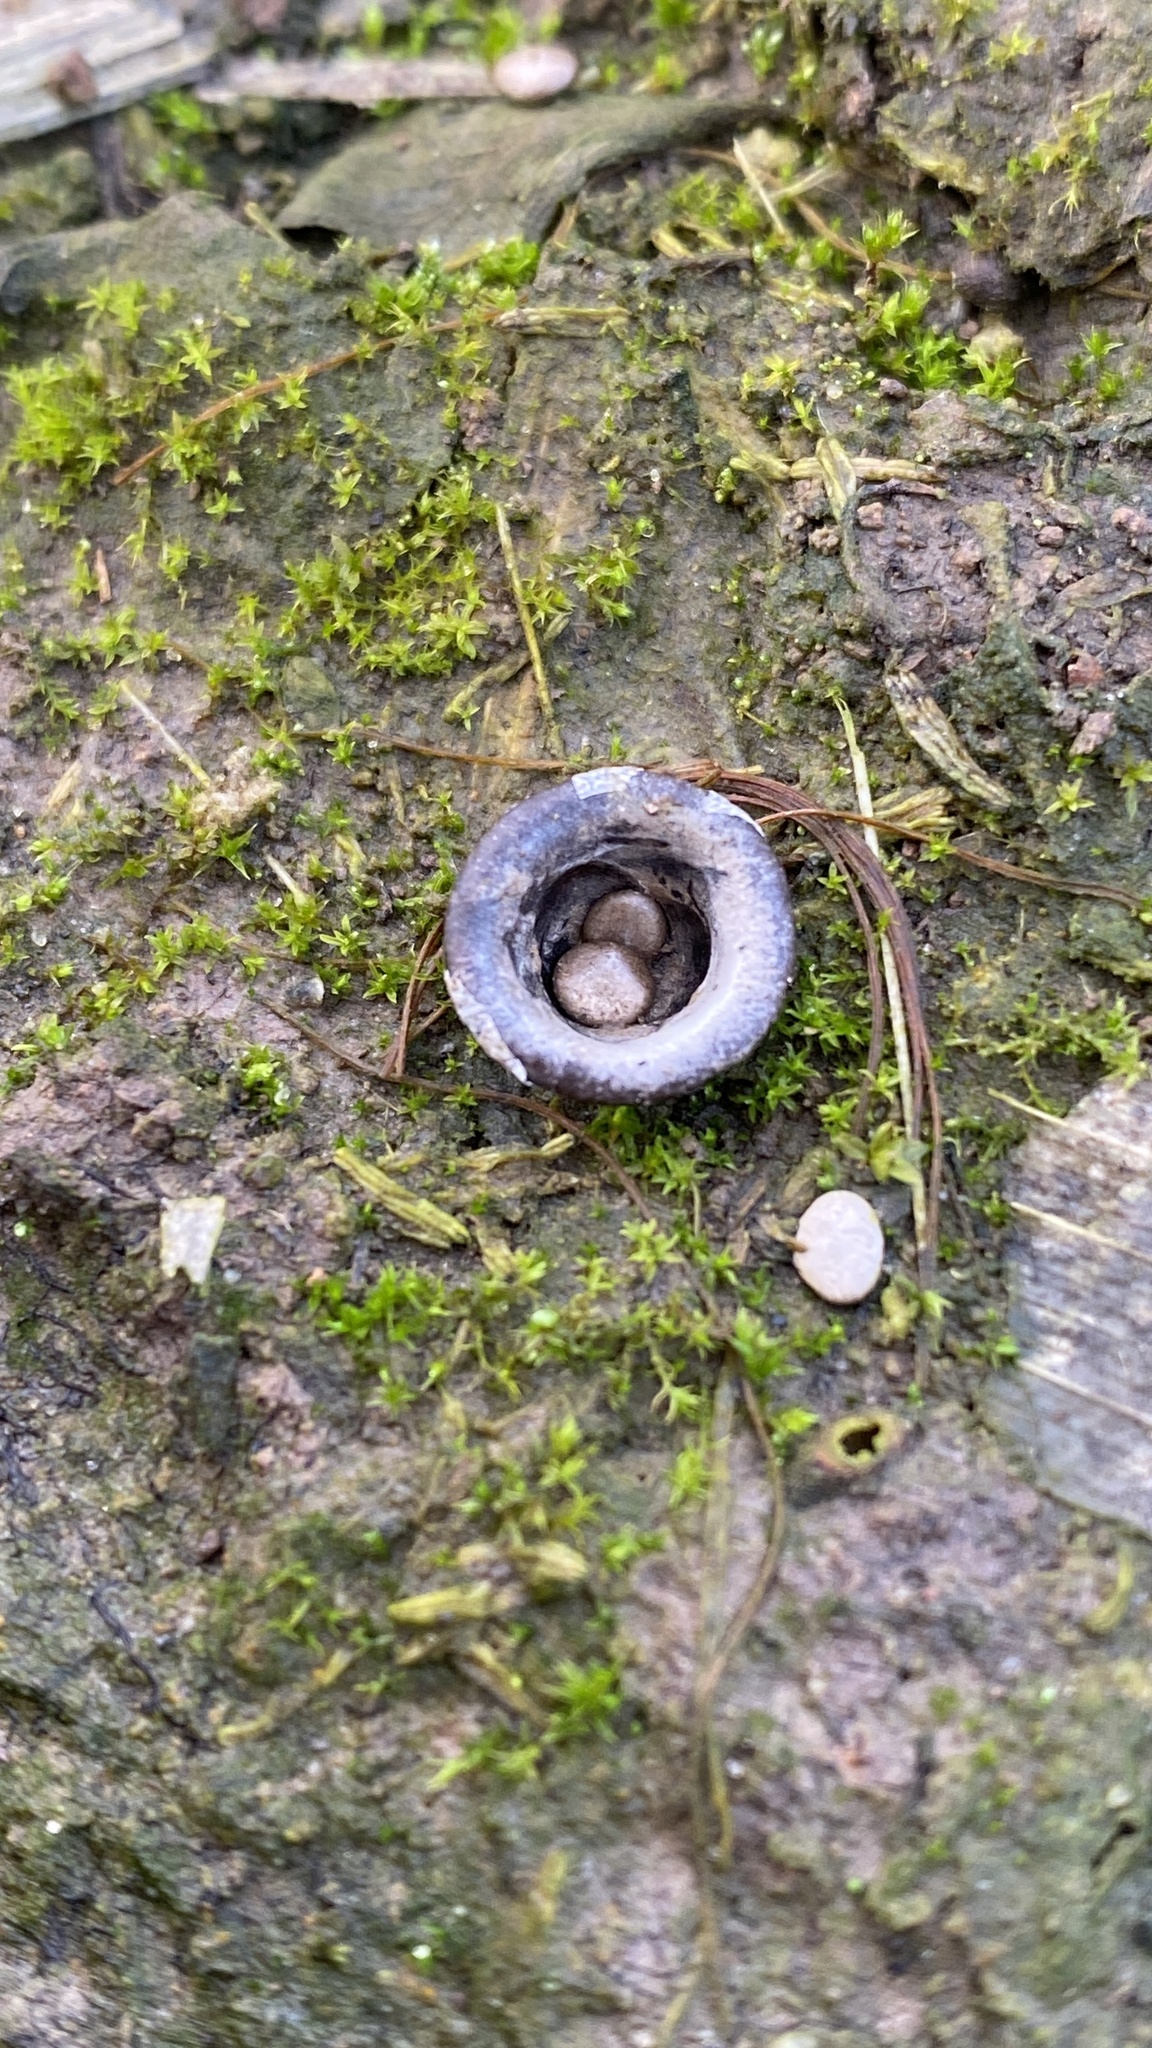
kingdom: Fungi
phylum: Basidiomycota
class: Agaricomycetes
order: Agaricales
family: Agaricaceae
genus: Cyathus
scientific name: Cyathus olla
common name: Field bird's nest
